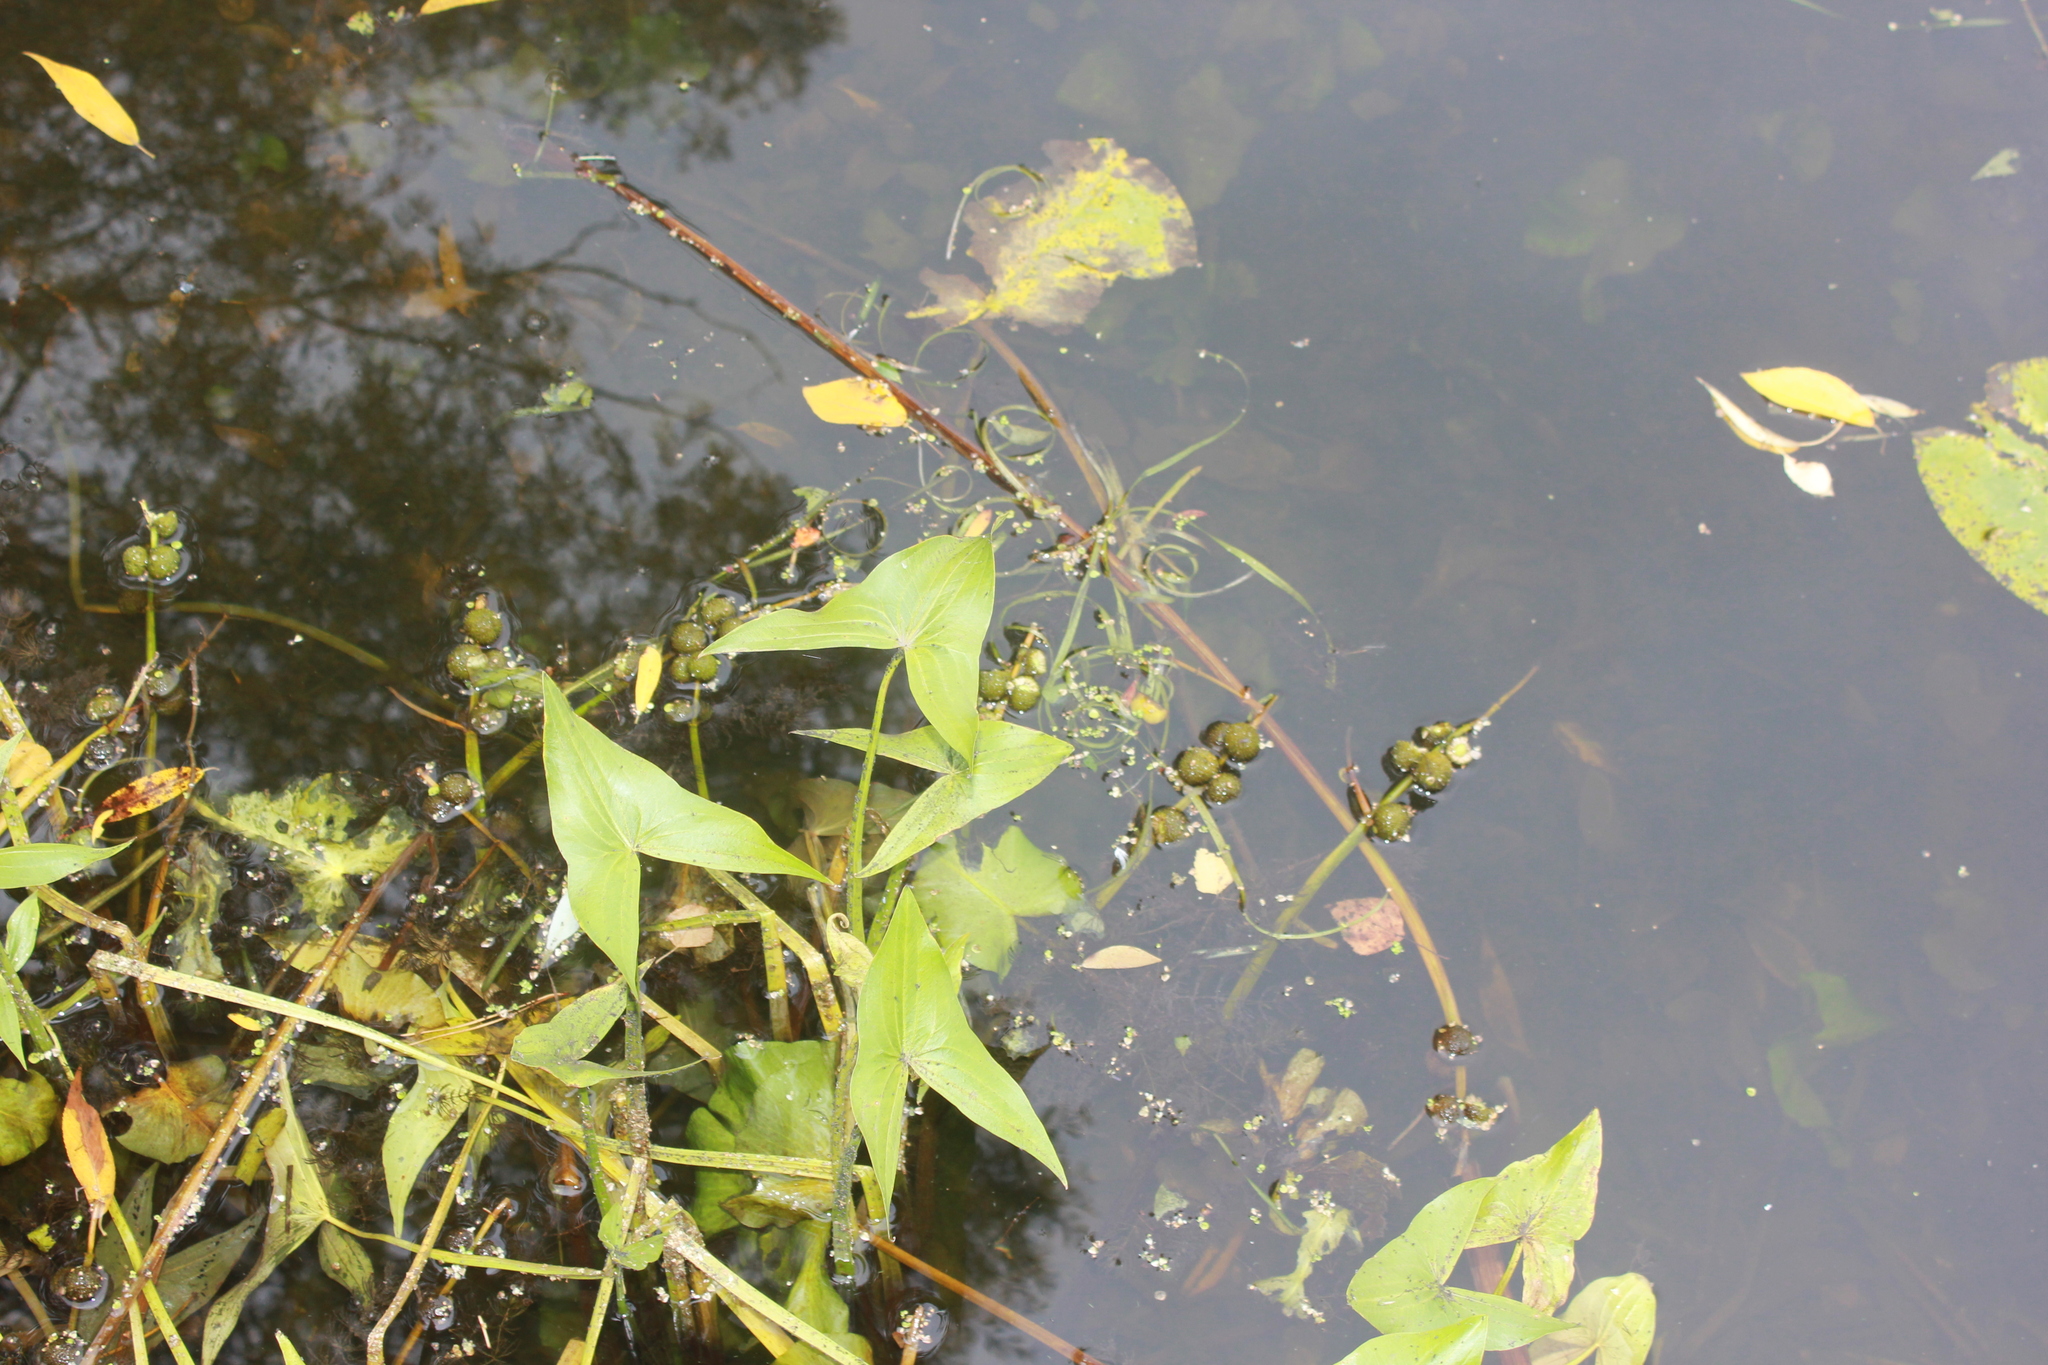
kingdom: Plantae
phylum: Tracheophyta
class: Liliopsida
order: Alismatales
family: Alismataceae
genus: Sagittaria
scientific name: Sagittaria sagittifolia
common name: Arrowhead
